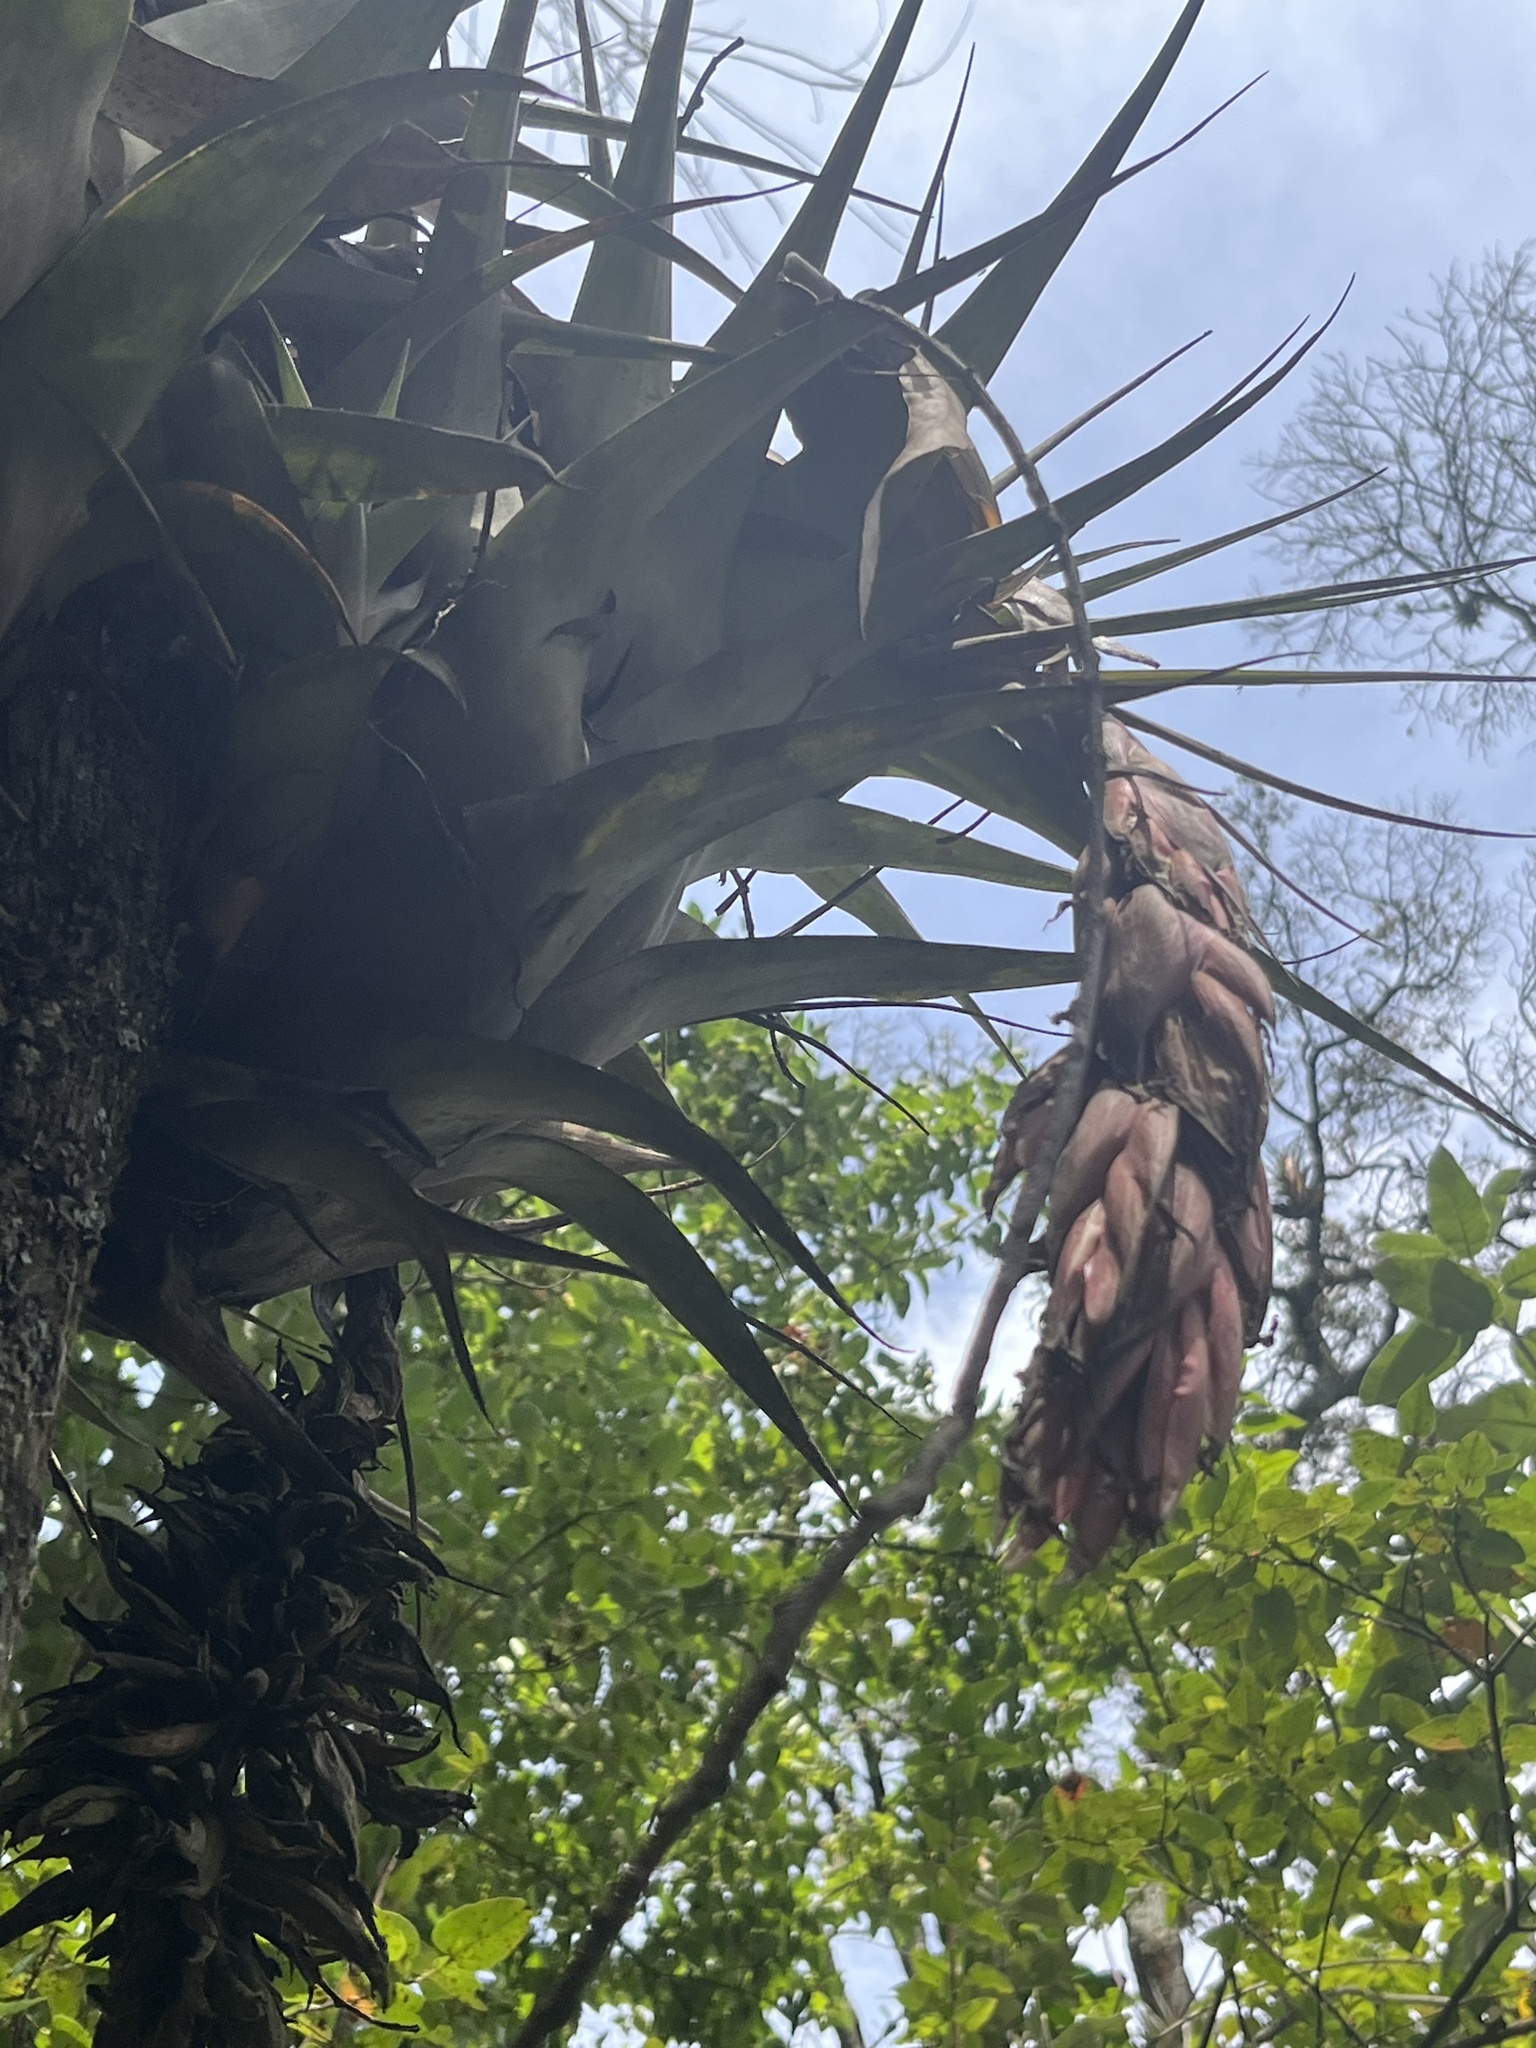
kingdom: Plantae
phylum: Tracheophyta
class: Liliopsida
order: Poales
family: Bromeliaceae
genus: Tillandsia
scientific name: Tillandsia hansonii
